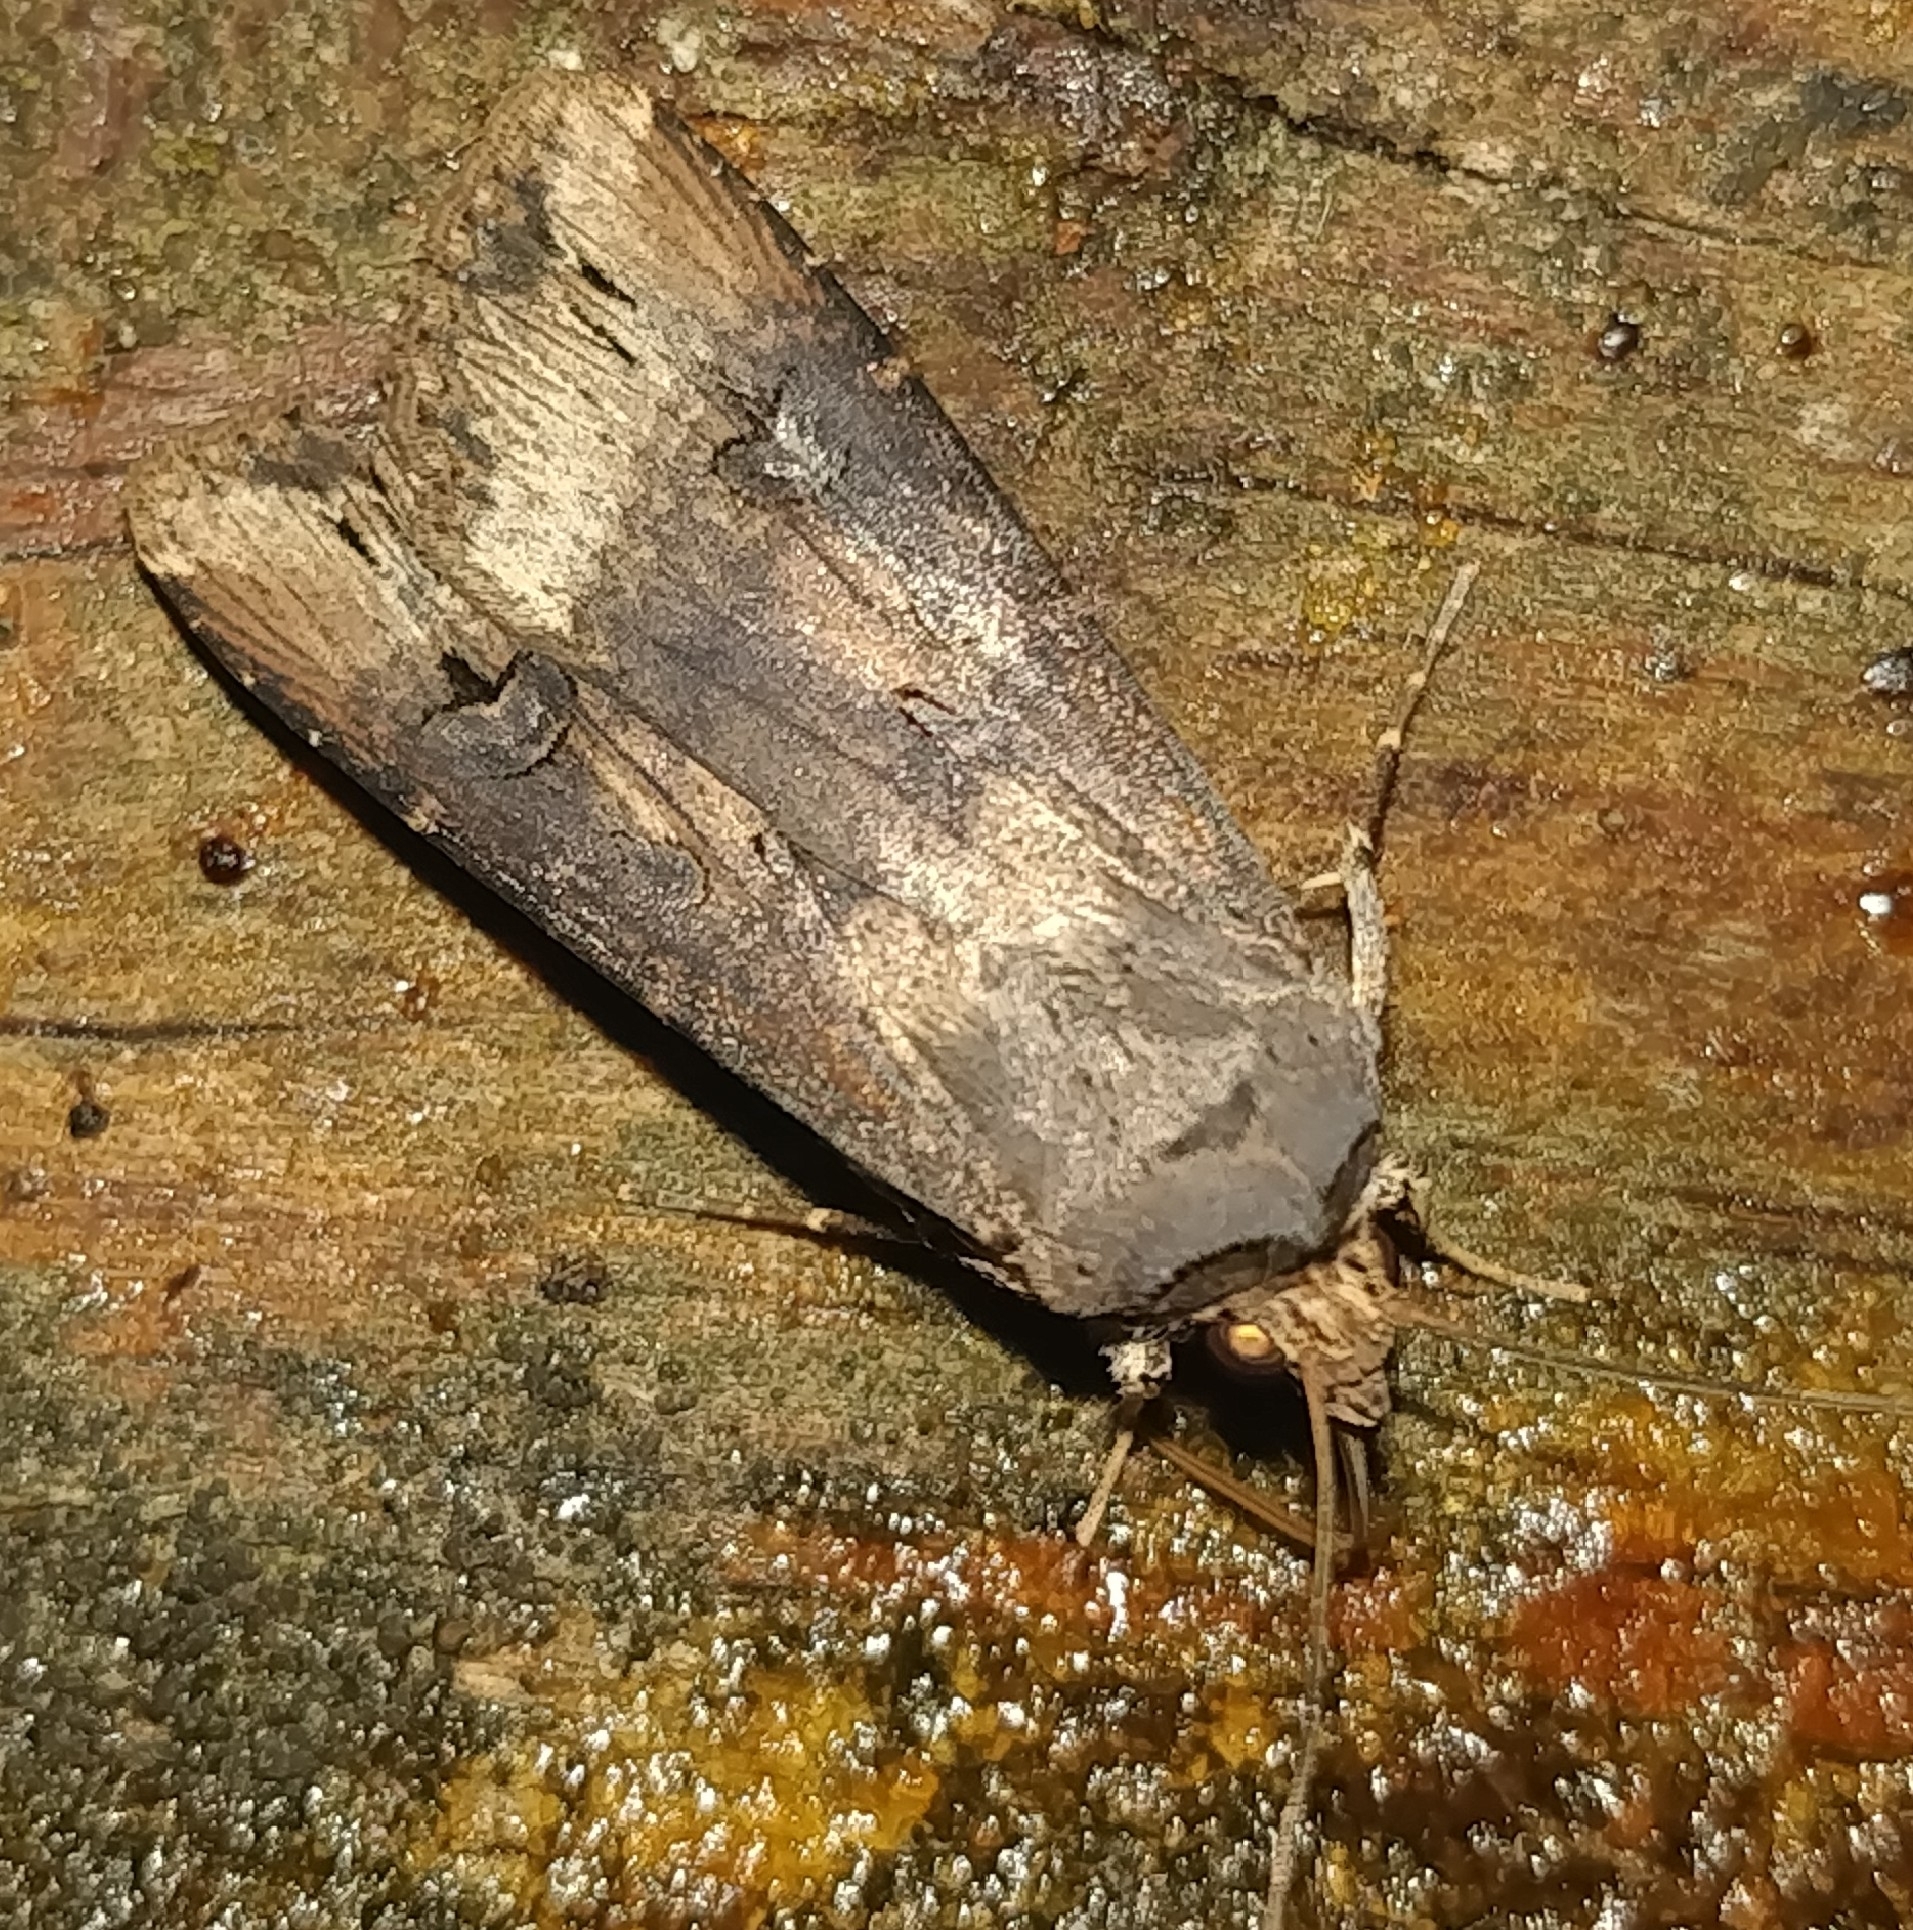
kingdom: Animalia
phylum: Arthropoda
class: Insecta
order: Lepidoptera
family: Noctuidae
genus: Agrotis
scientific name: Agrotis ipsilon
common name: Dark sword-grass
